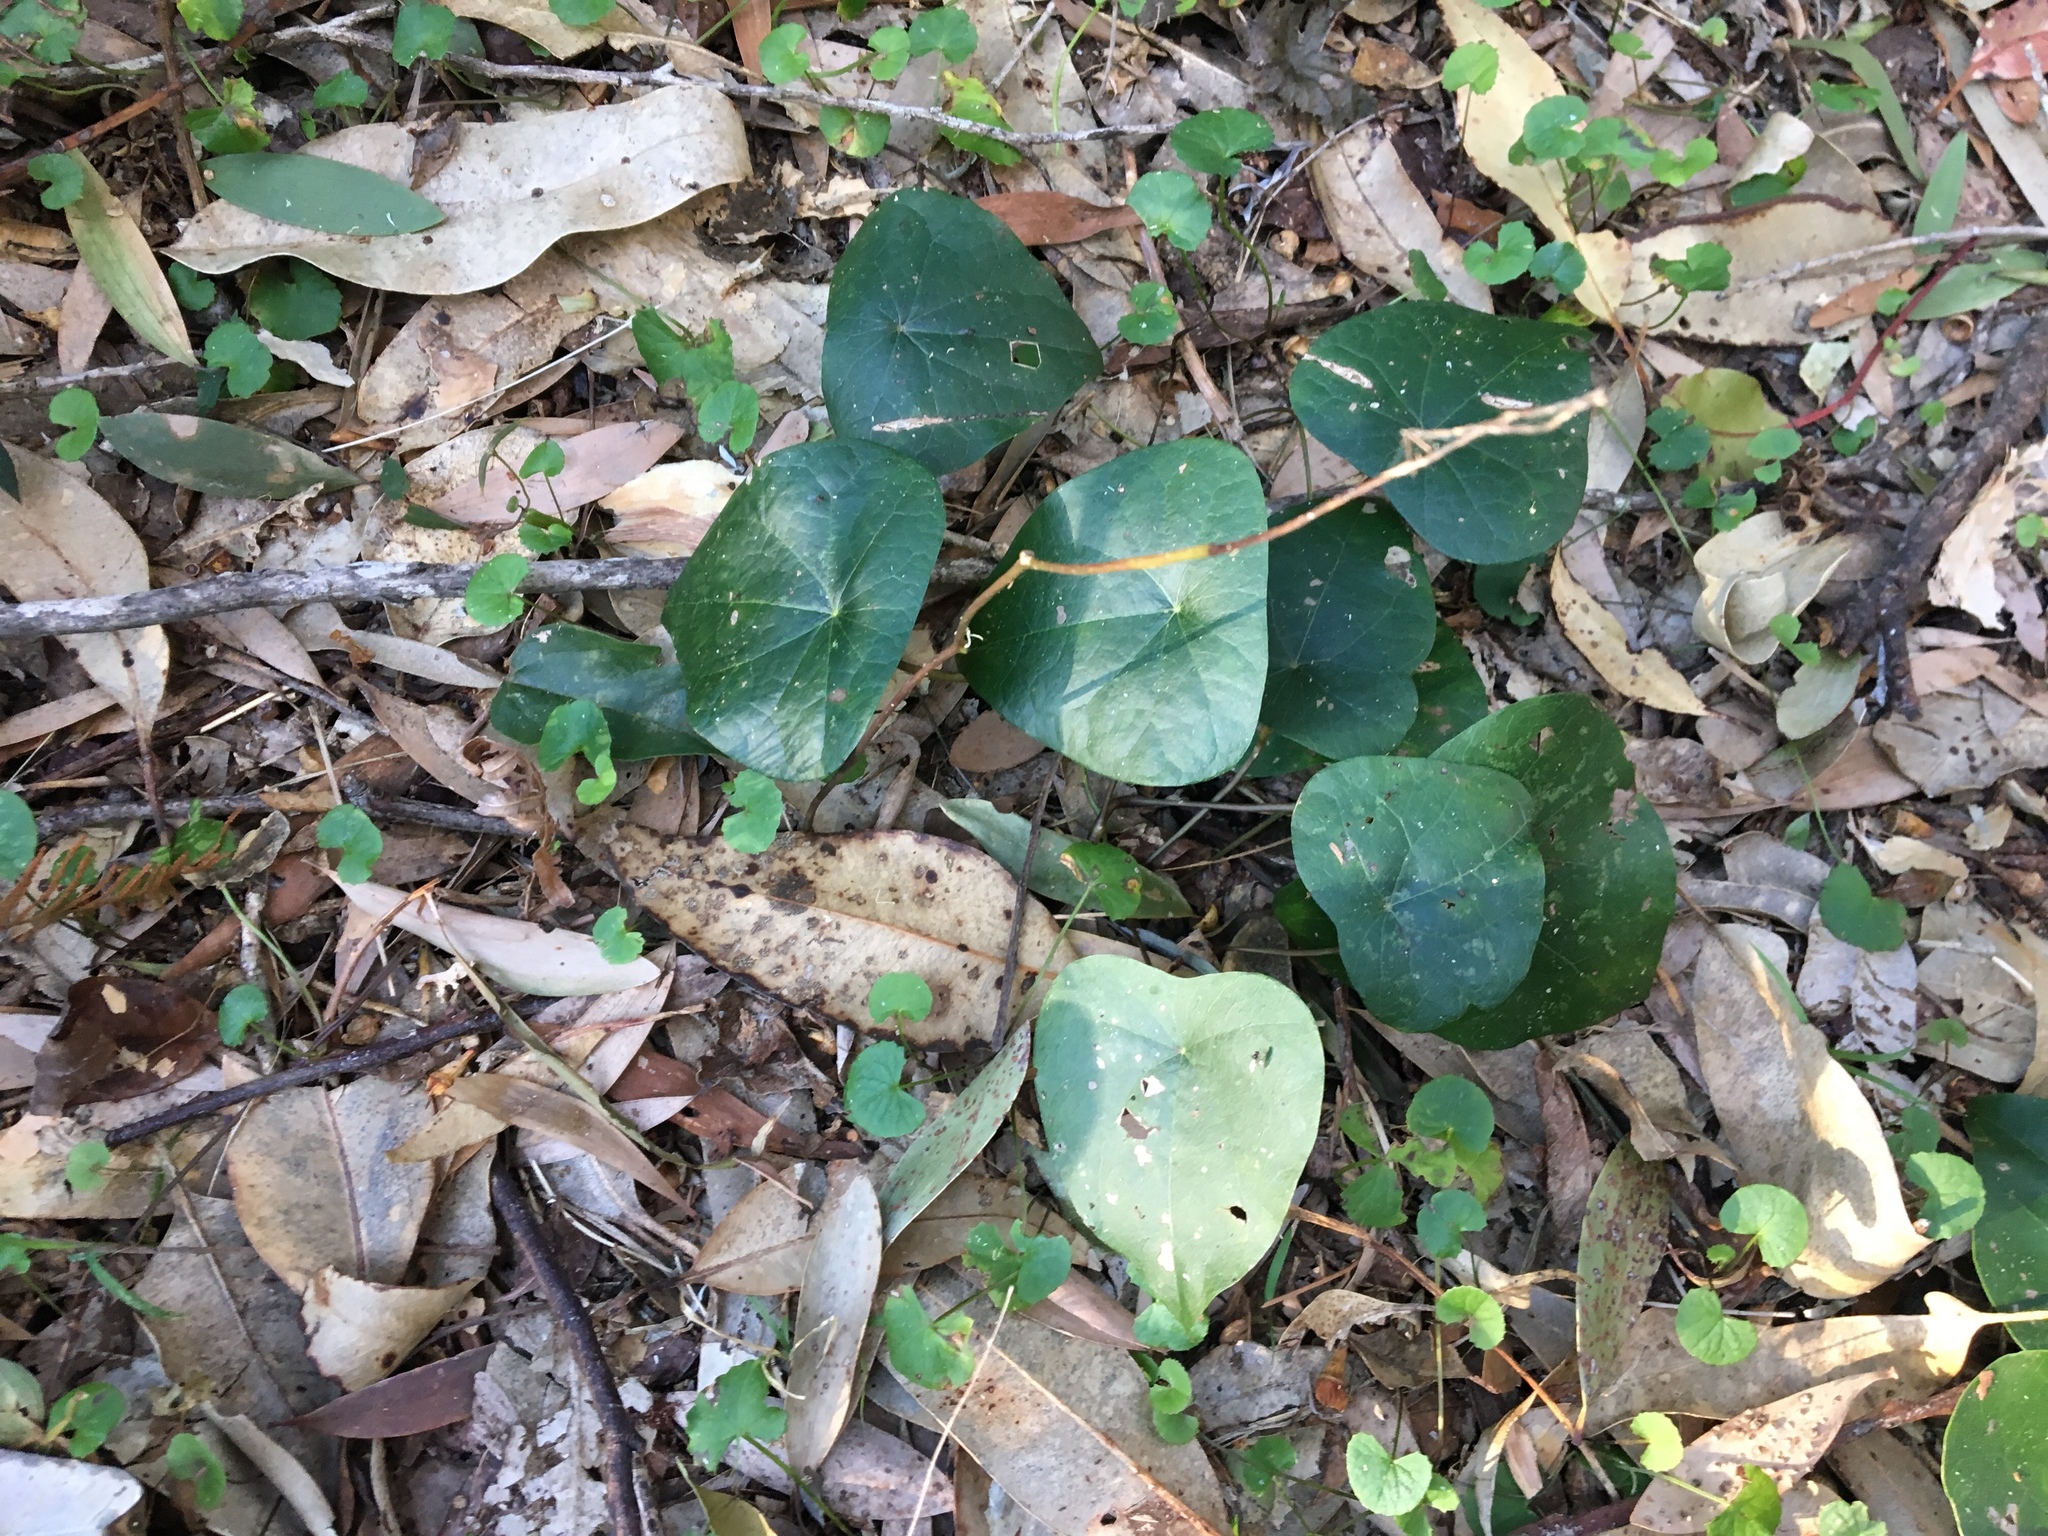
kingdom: Plantae
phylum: Tracheophyta
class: Magnoliopsida
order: Ranunculales
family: Menispermaceae
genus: Stephania
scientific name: Stephania japonica
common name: Snake vine
